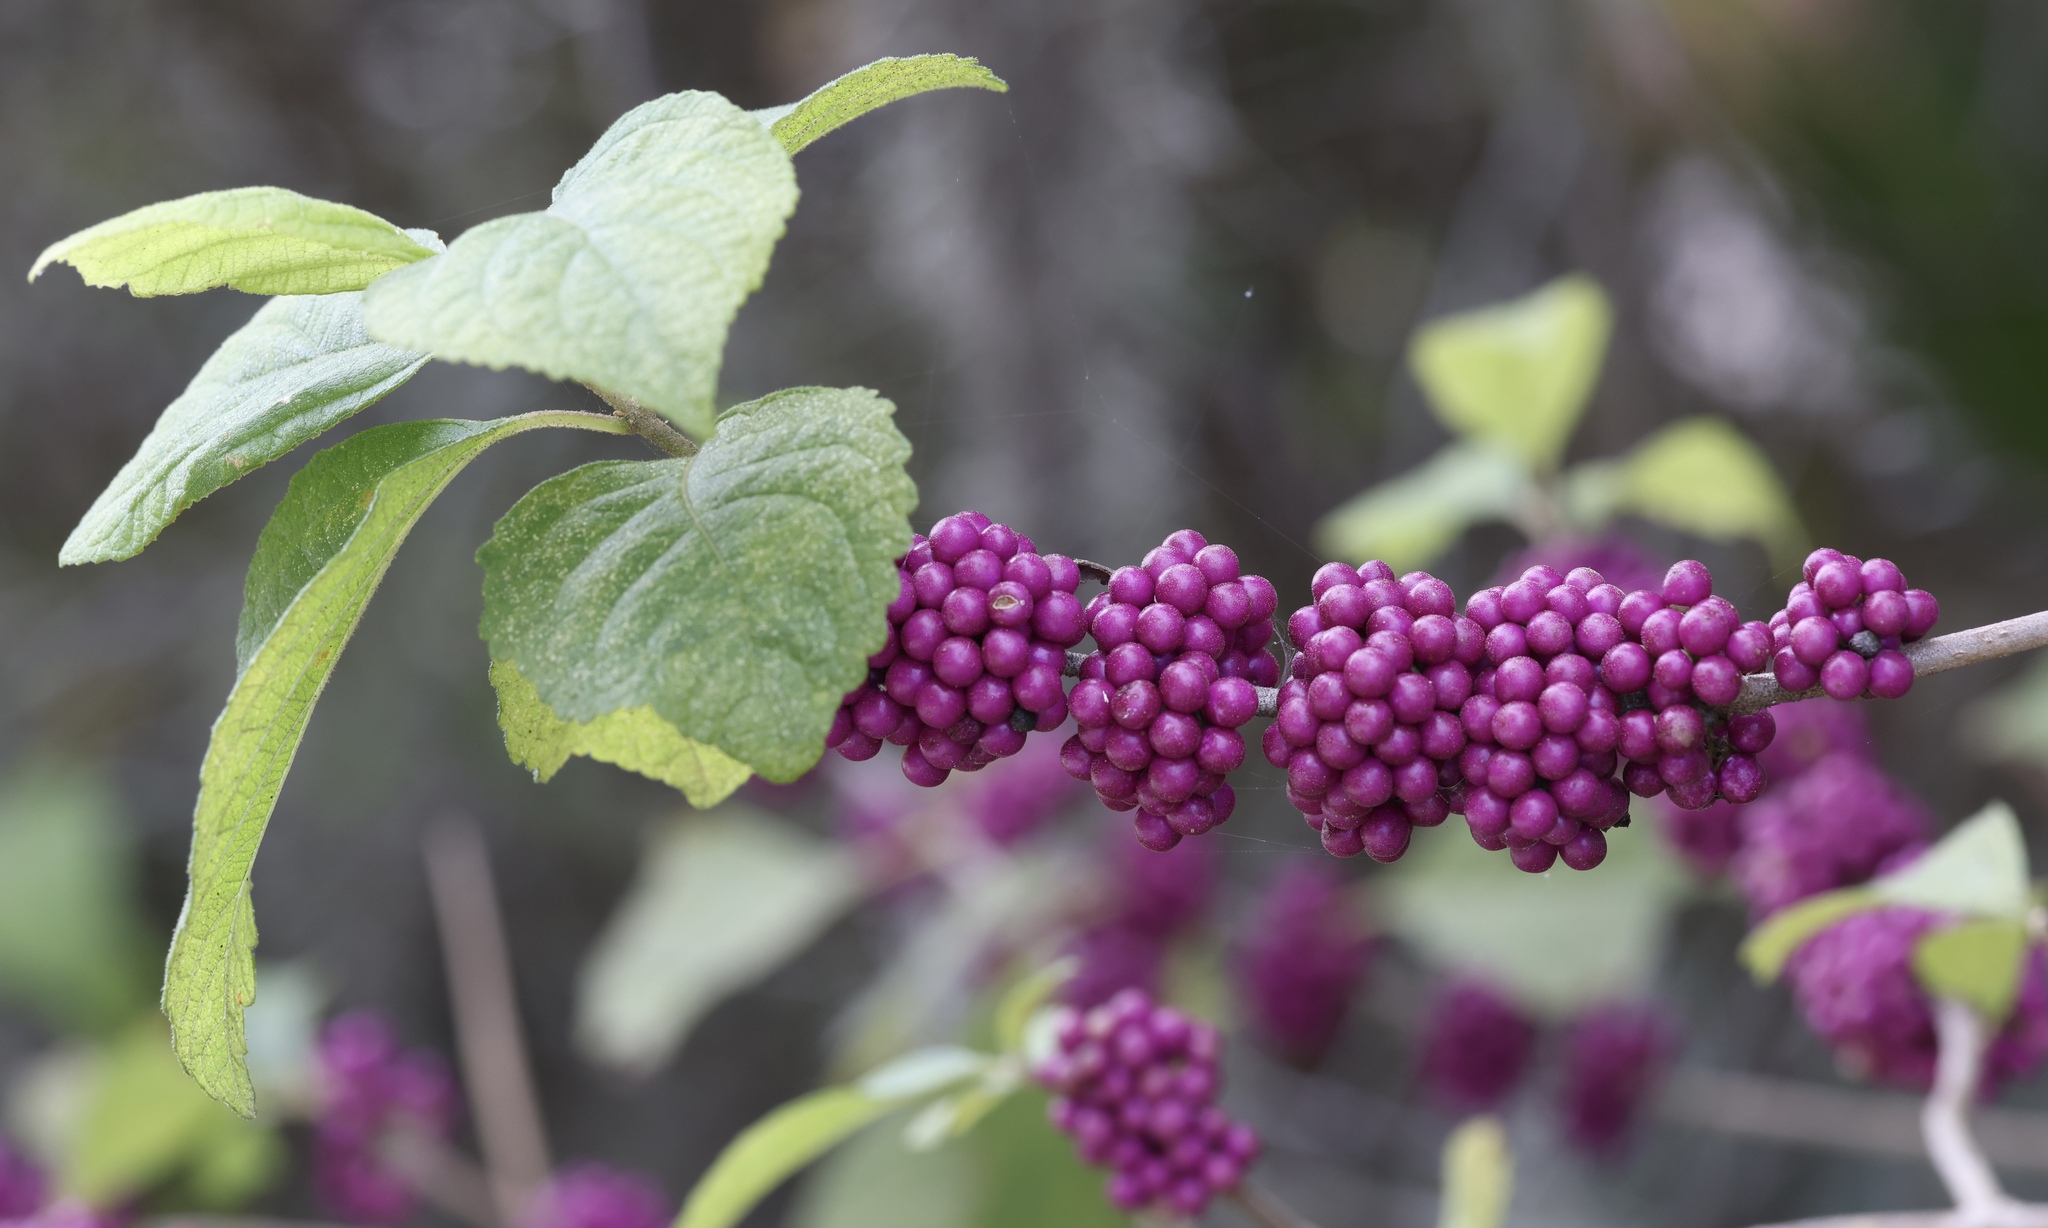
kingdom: Plantae
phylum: Tracheophyta
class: Magnoliopsida
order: Lamiales
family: Lamiaceae
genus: Callicarpa
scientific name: Callicarpa americana
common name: American beautyberry
